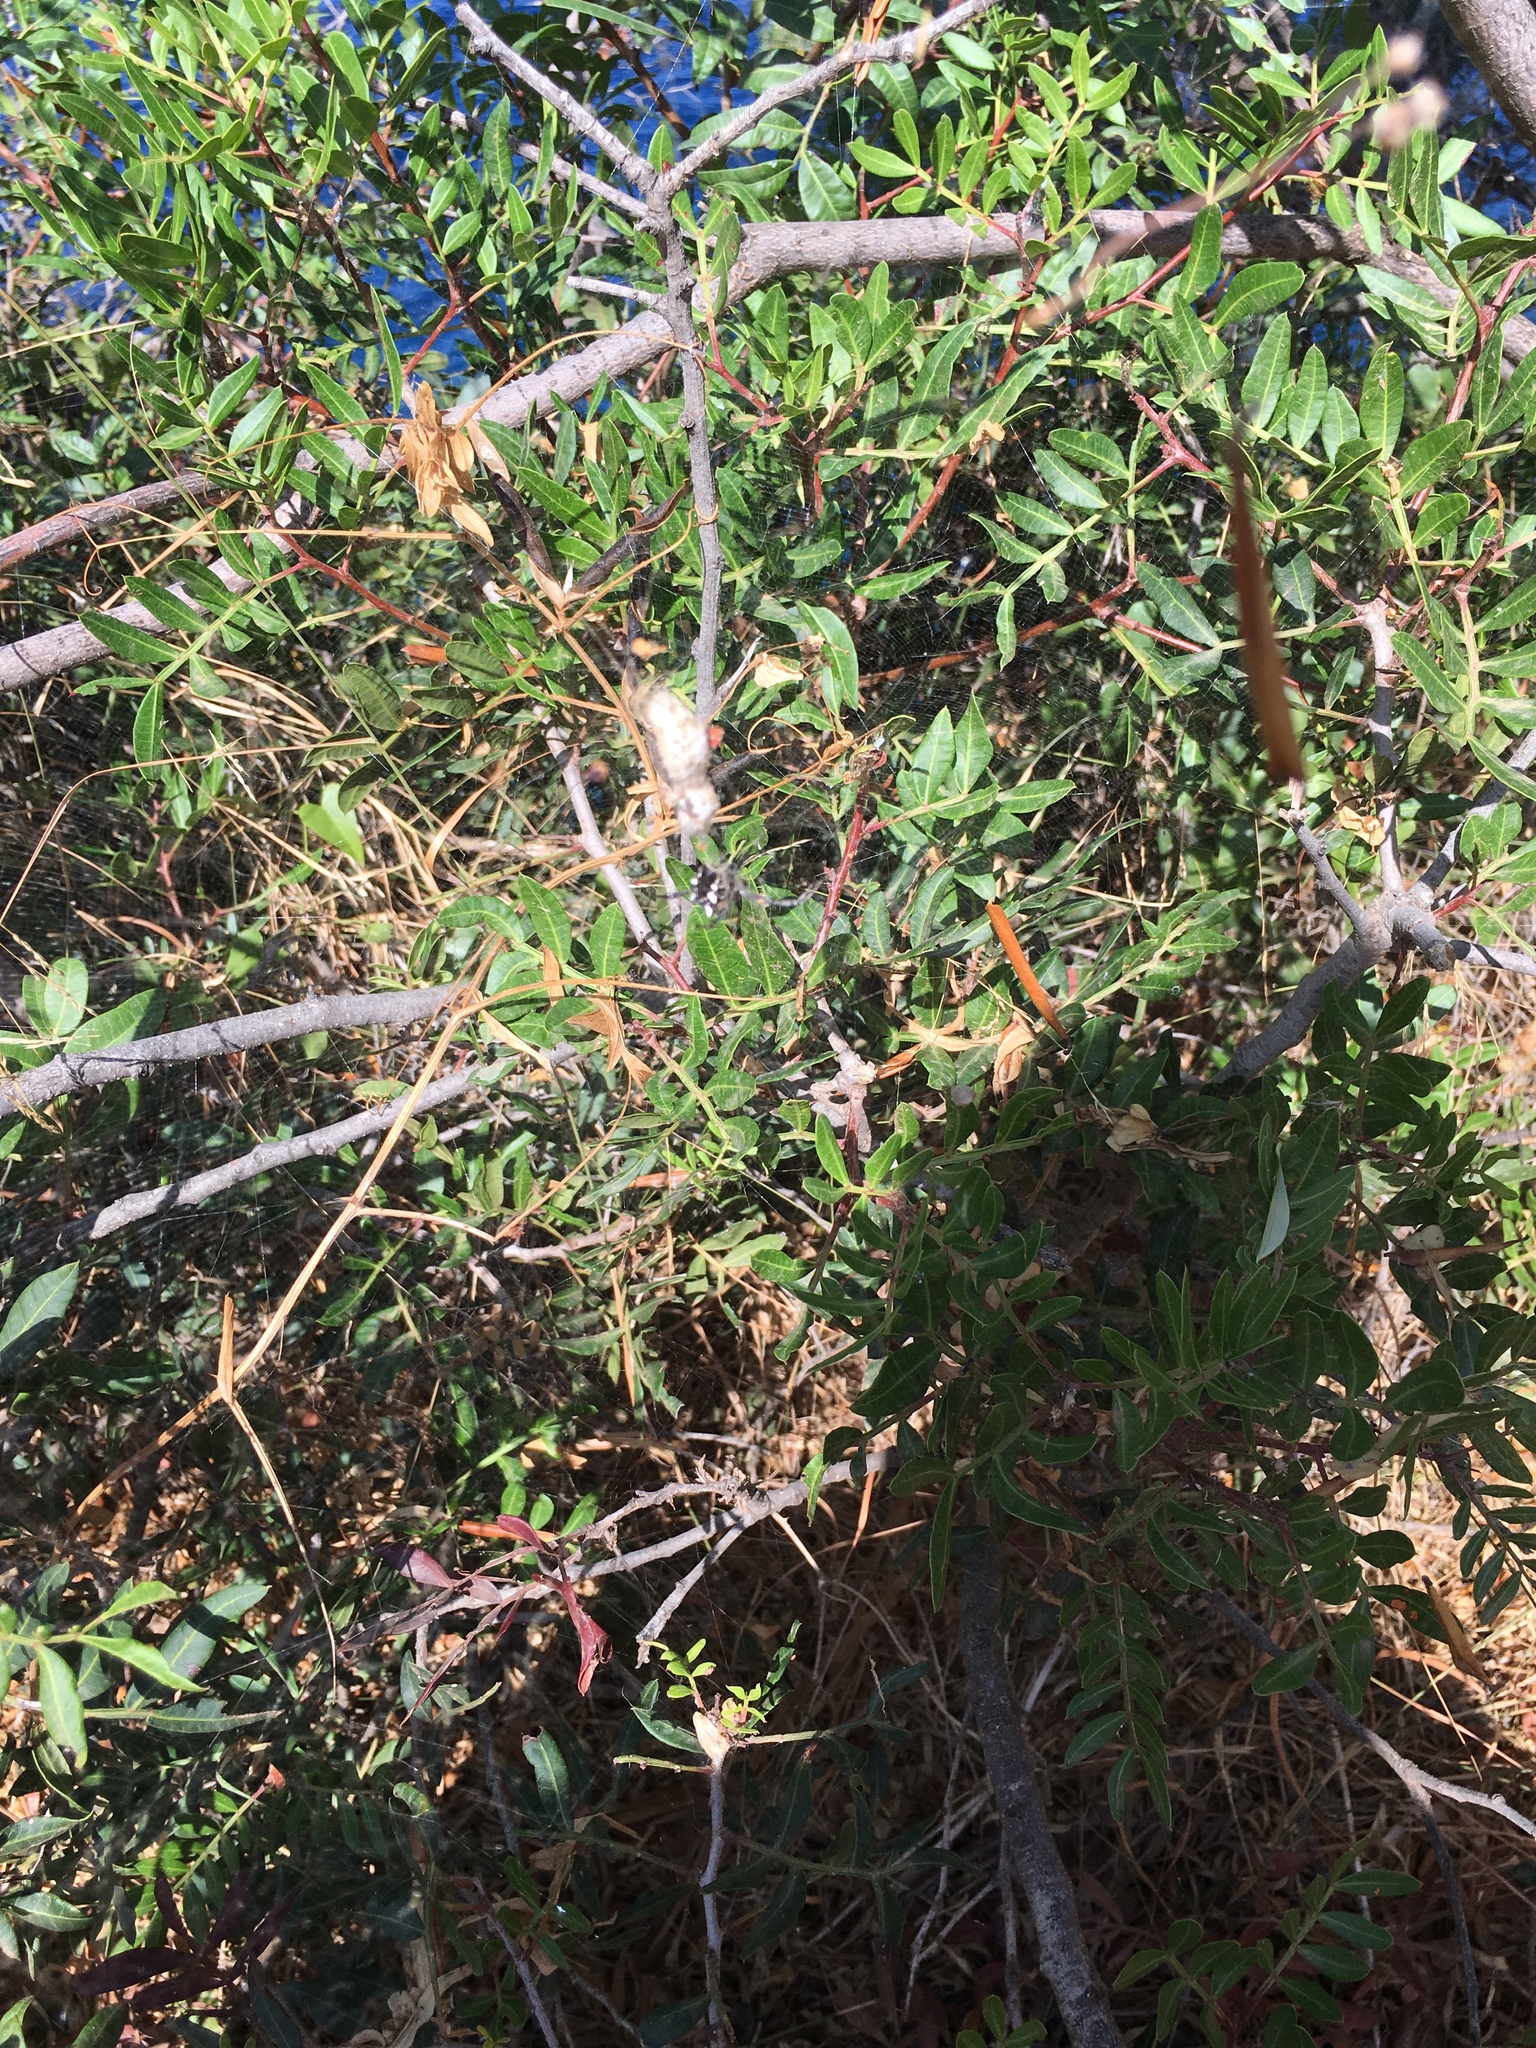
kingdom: Plantae
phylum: Tracheophyta
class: Magnoliopsida
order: Sapindales
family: Anacardiaceae
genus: Pistacia
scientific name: Pistacia lentiscus
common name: Lentisk
